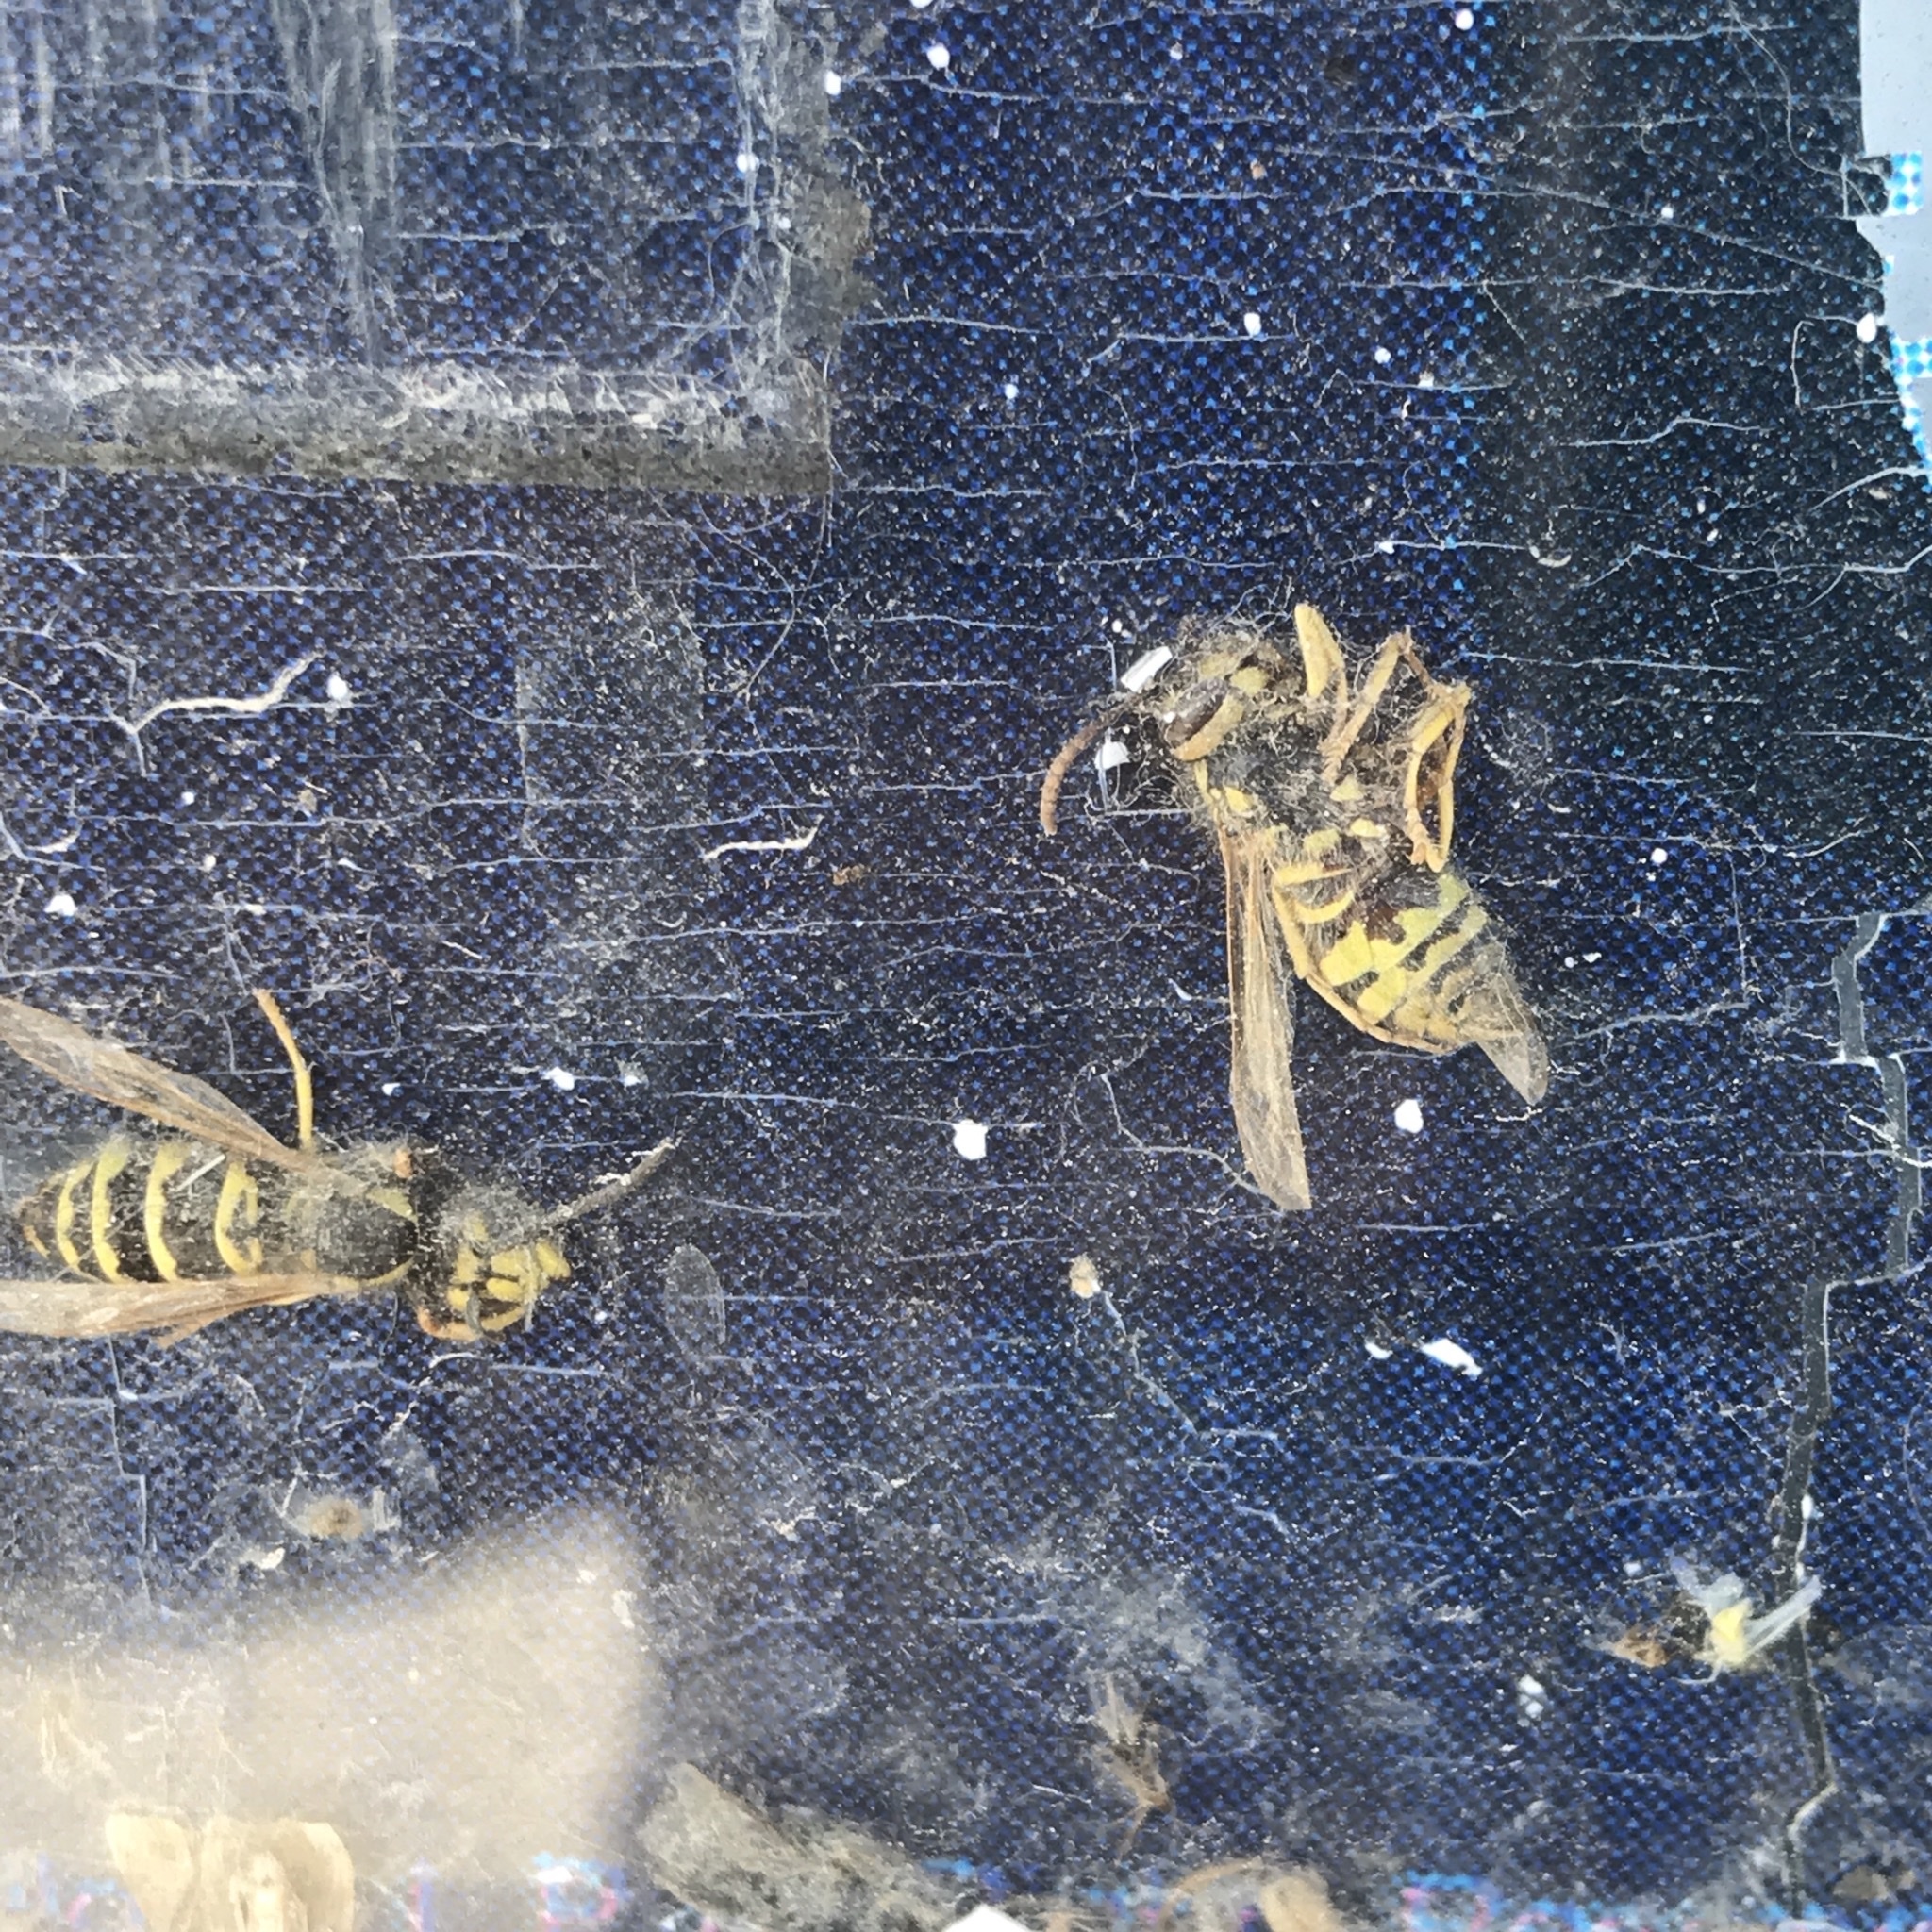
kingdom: Animalia
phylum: Arthropoda
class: Insecta
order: Hymenoptera
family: Vespidae
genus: Vespula
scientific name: Vespula maculifrons
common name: Eastern yellowjacket
